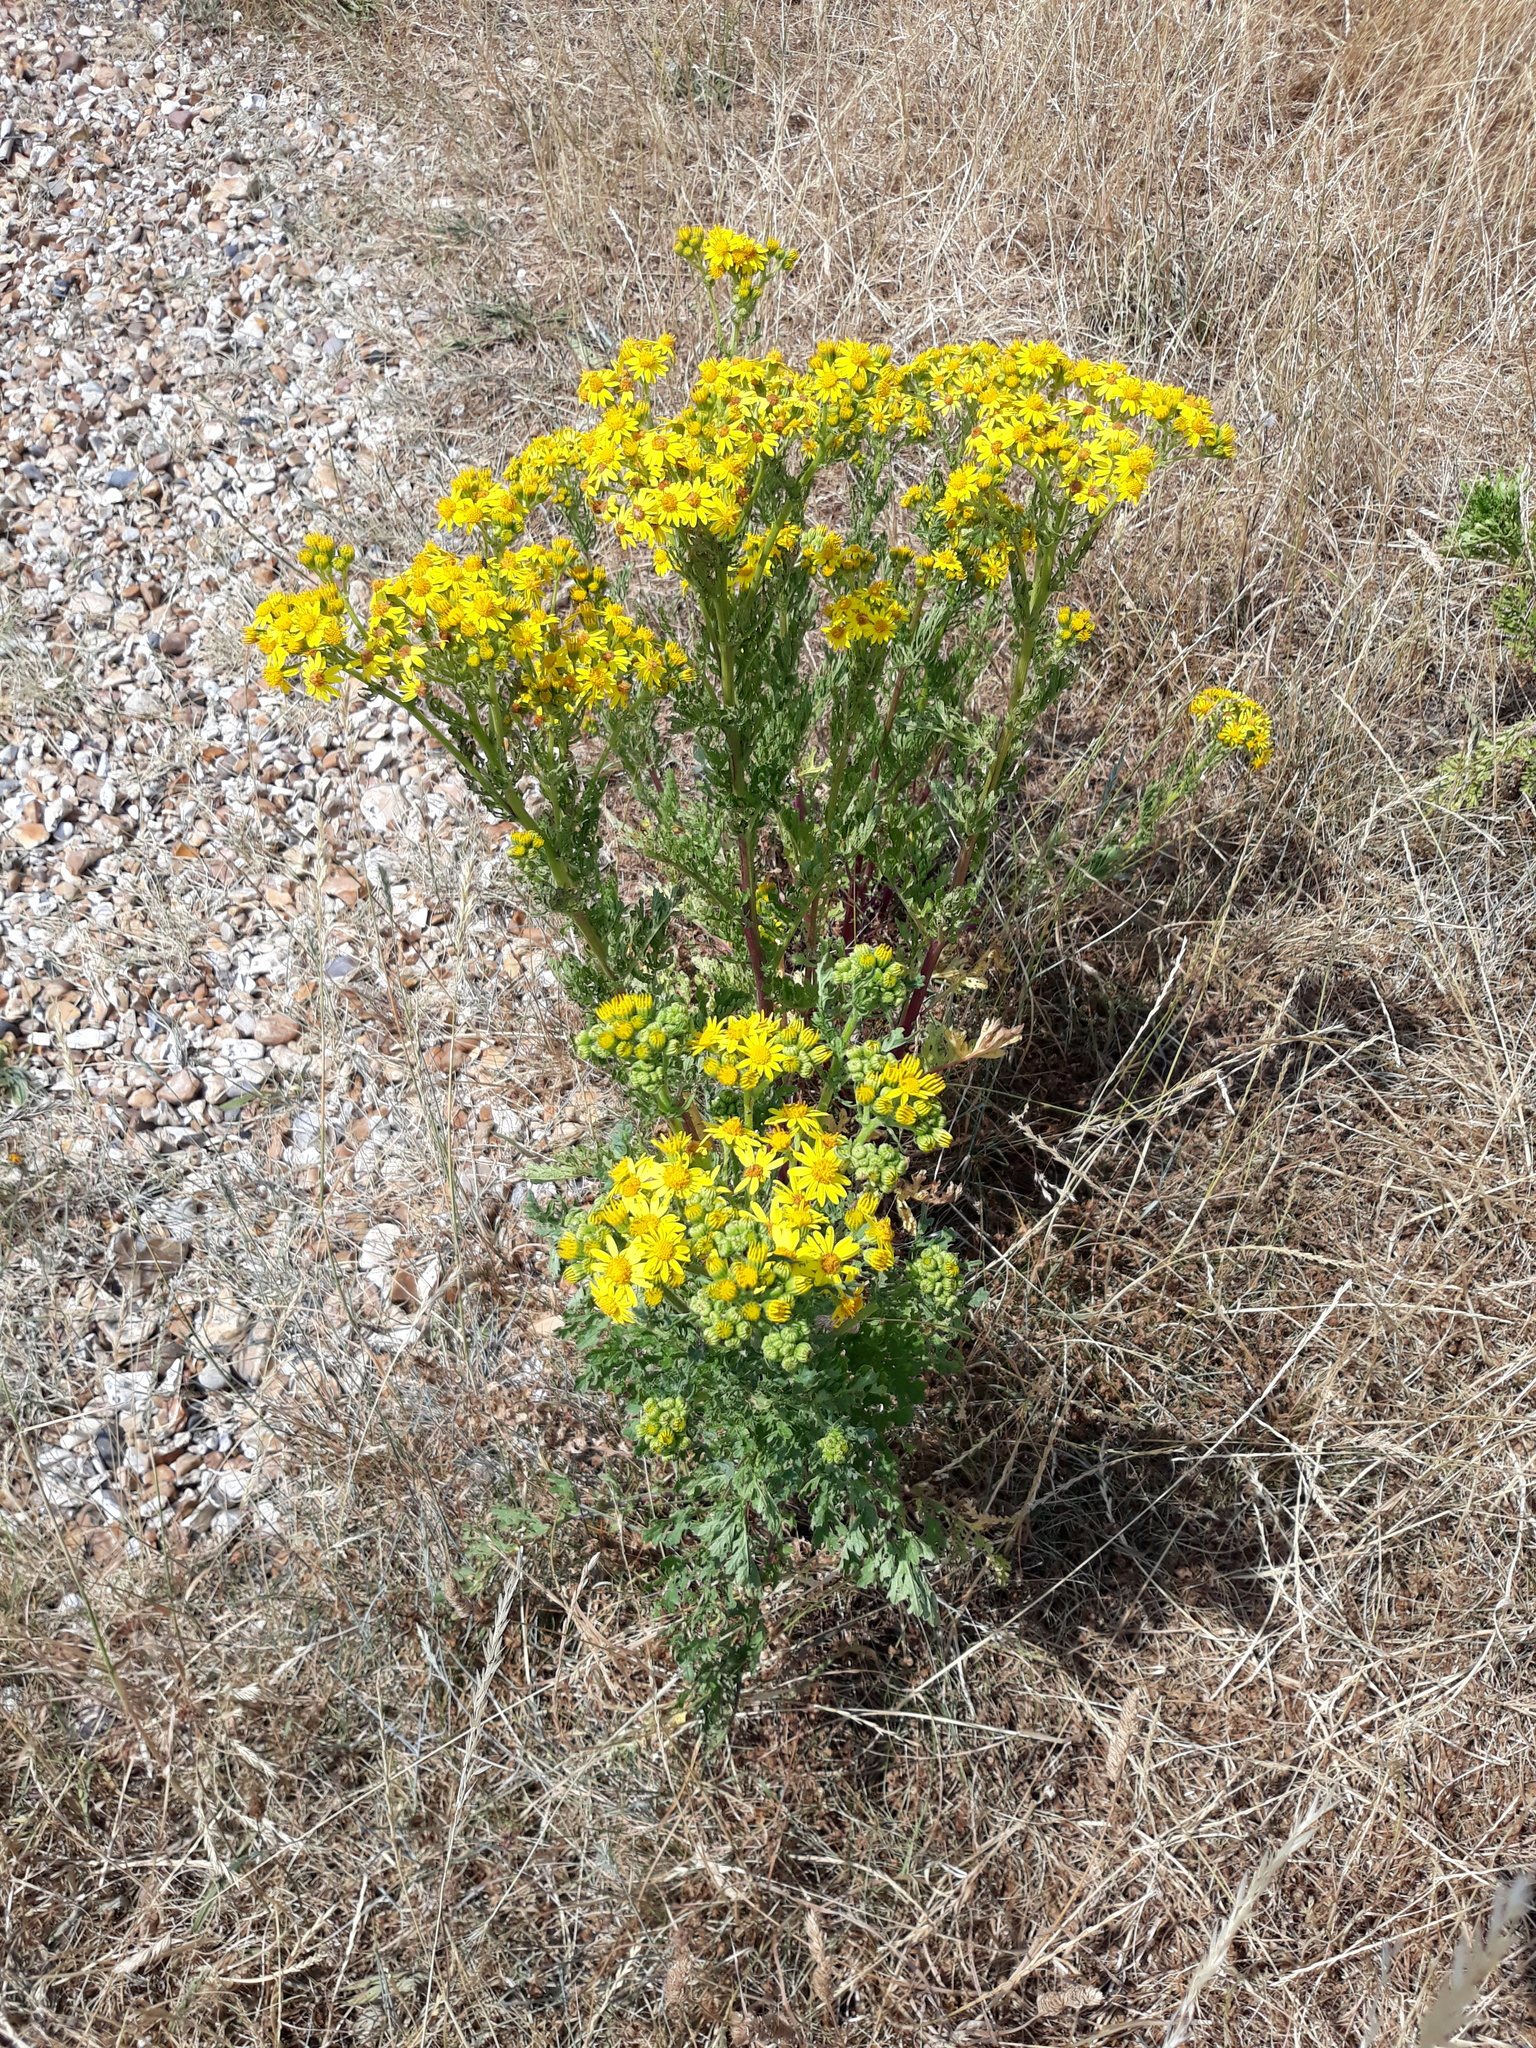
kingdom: Plantae
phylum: Tracheophyta
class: Magnoliopsida
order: Asterales
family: Asteraceae
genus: Jacobaea
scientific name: Jacobaea vulgaris
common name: Stinking willie
